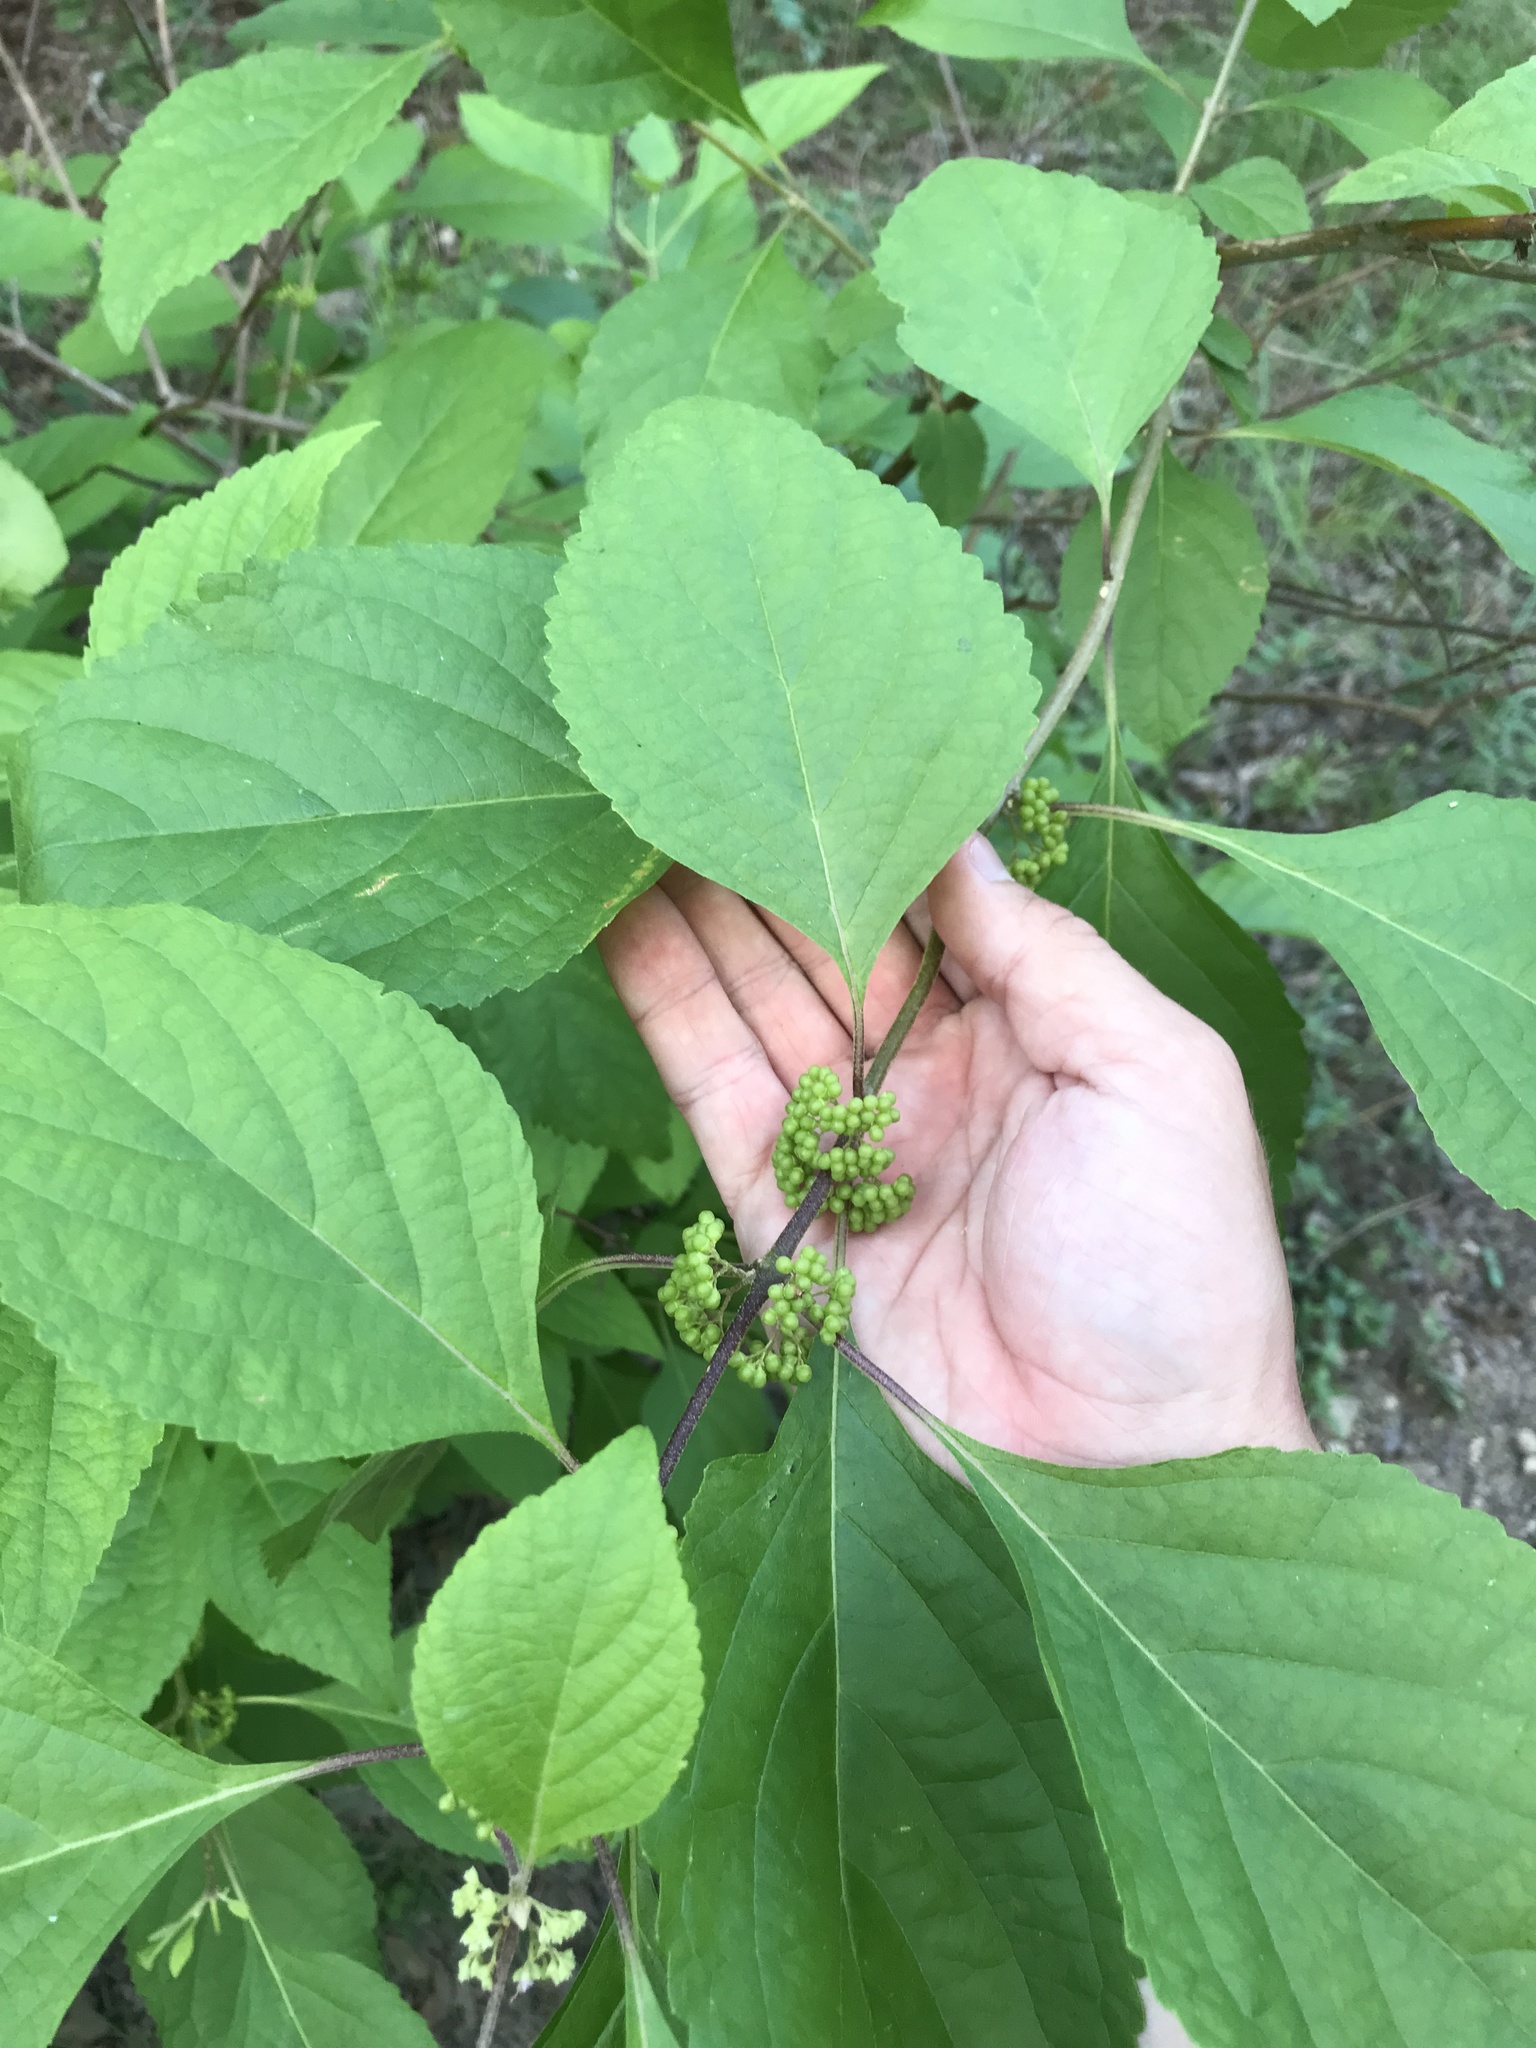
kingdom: Plantae
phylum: Tracheophyta
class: Magnoliopsida
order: Lamiales
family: Lamiaceae
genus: Callicarpa
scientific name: Callicarpa americana
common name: American beautyberry
